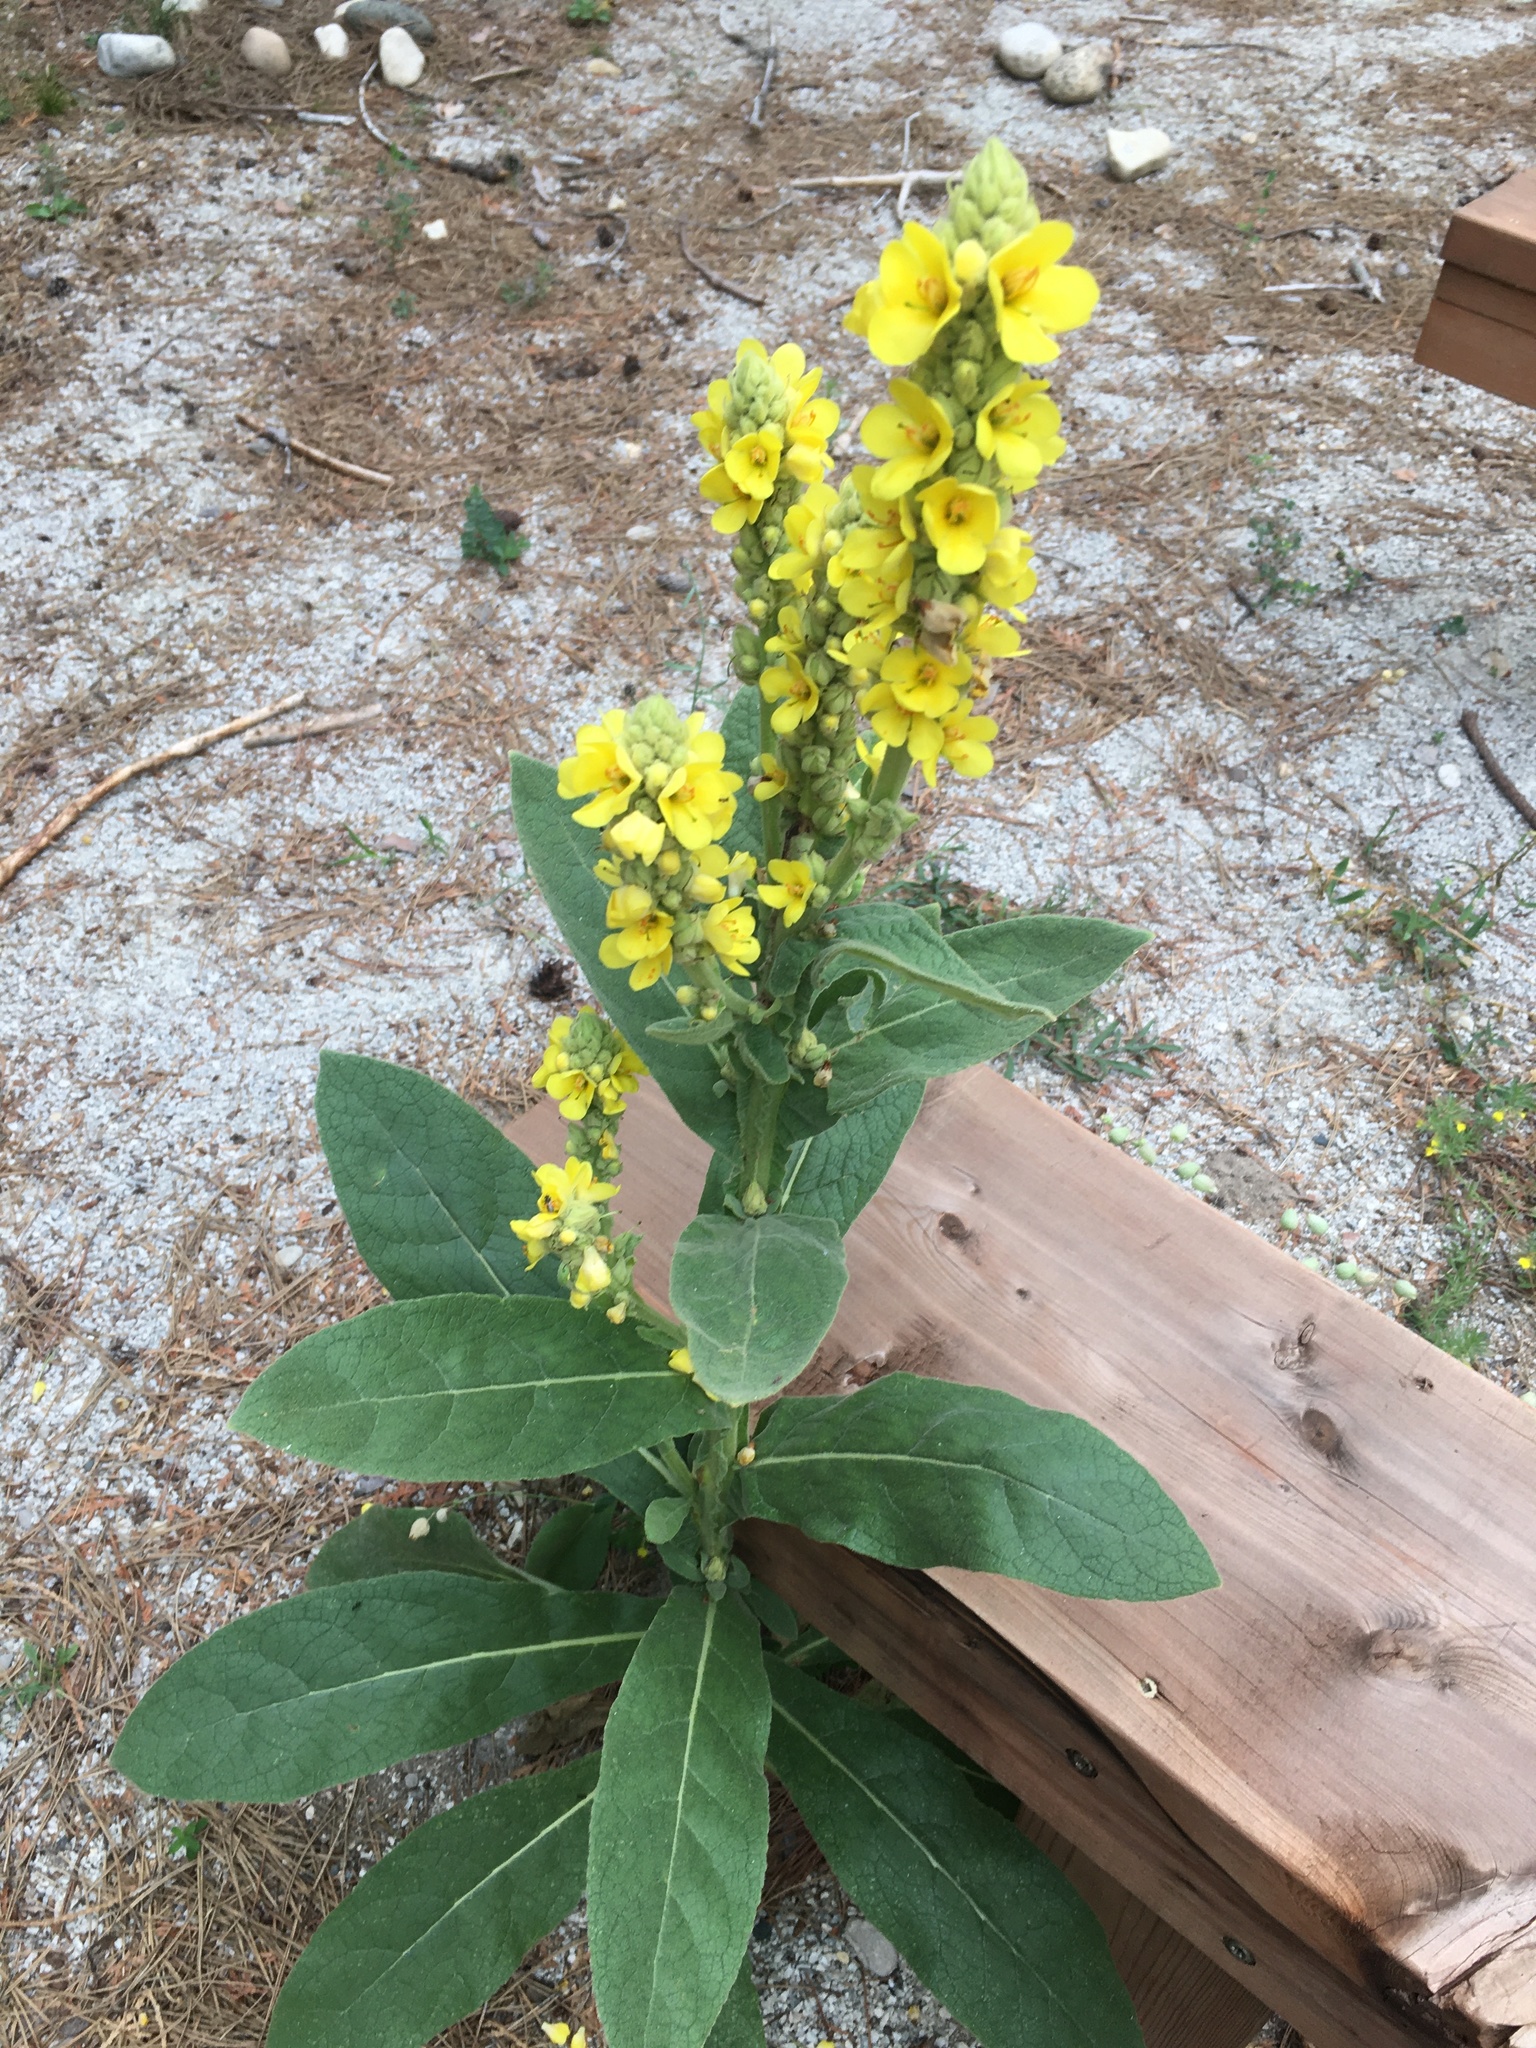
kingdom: Plantae
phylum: Tracheophyta
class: Magnoliopsida
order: Lamiales
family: Scrophulariaceae
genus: Verbascum
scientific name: Verbascum thapsus
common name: Common mullein
